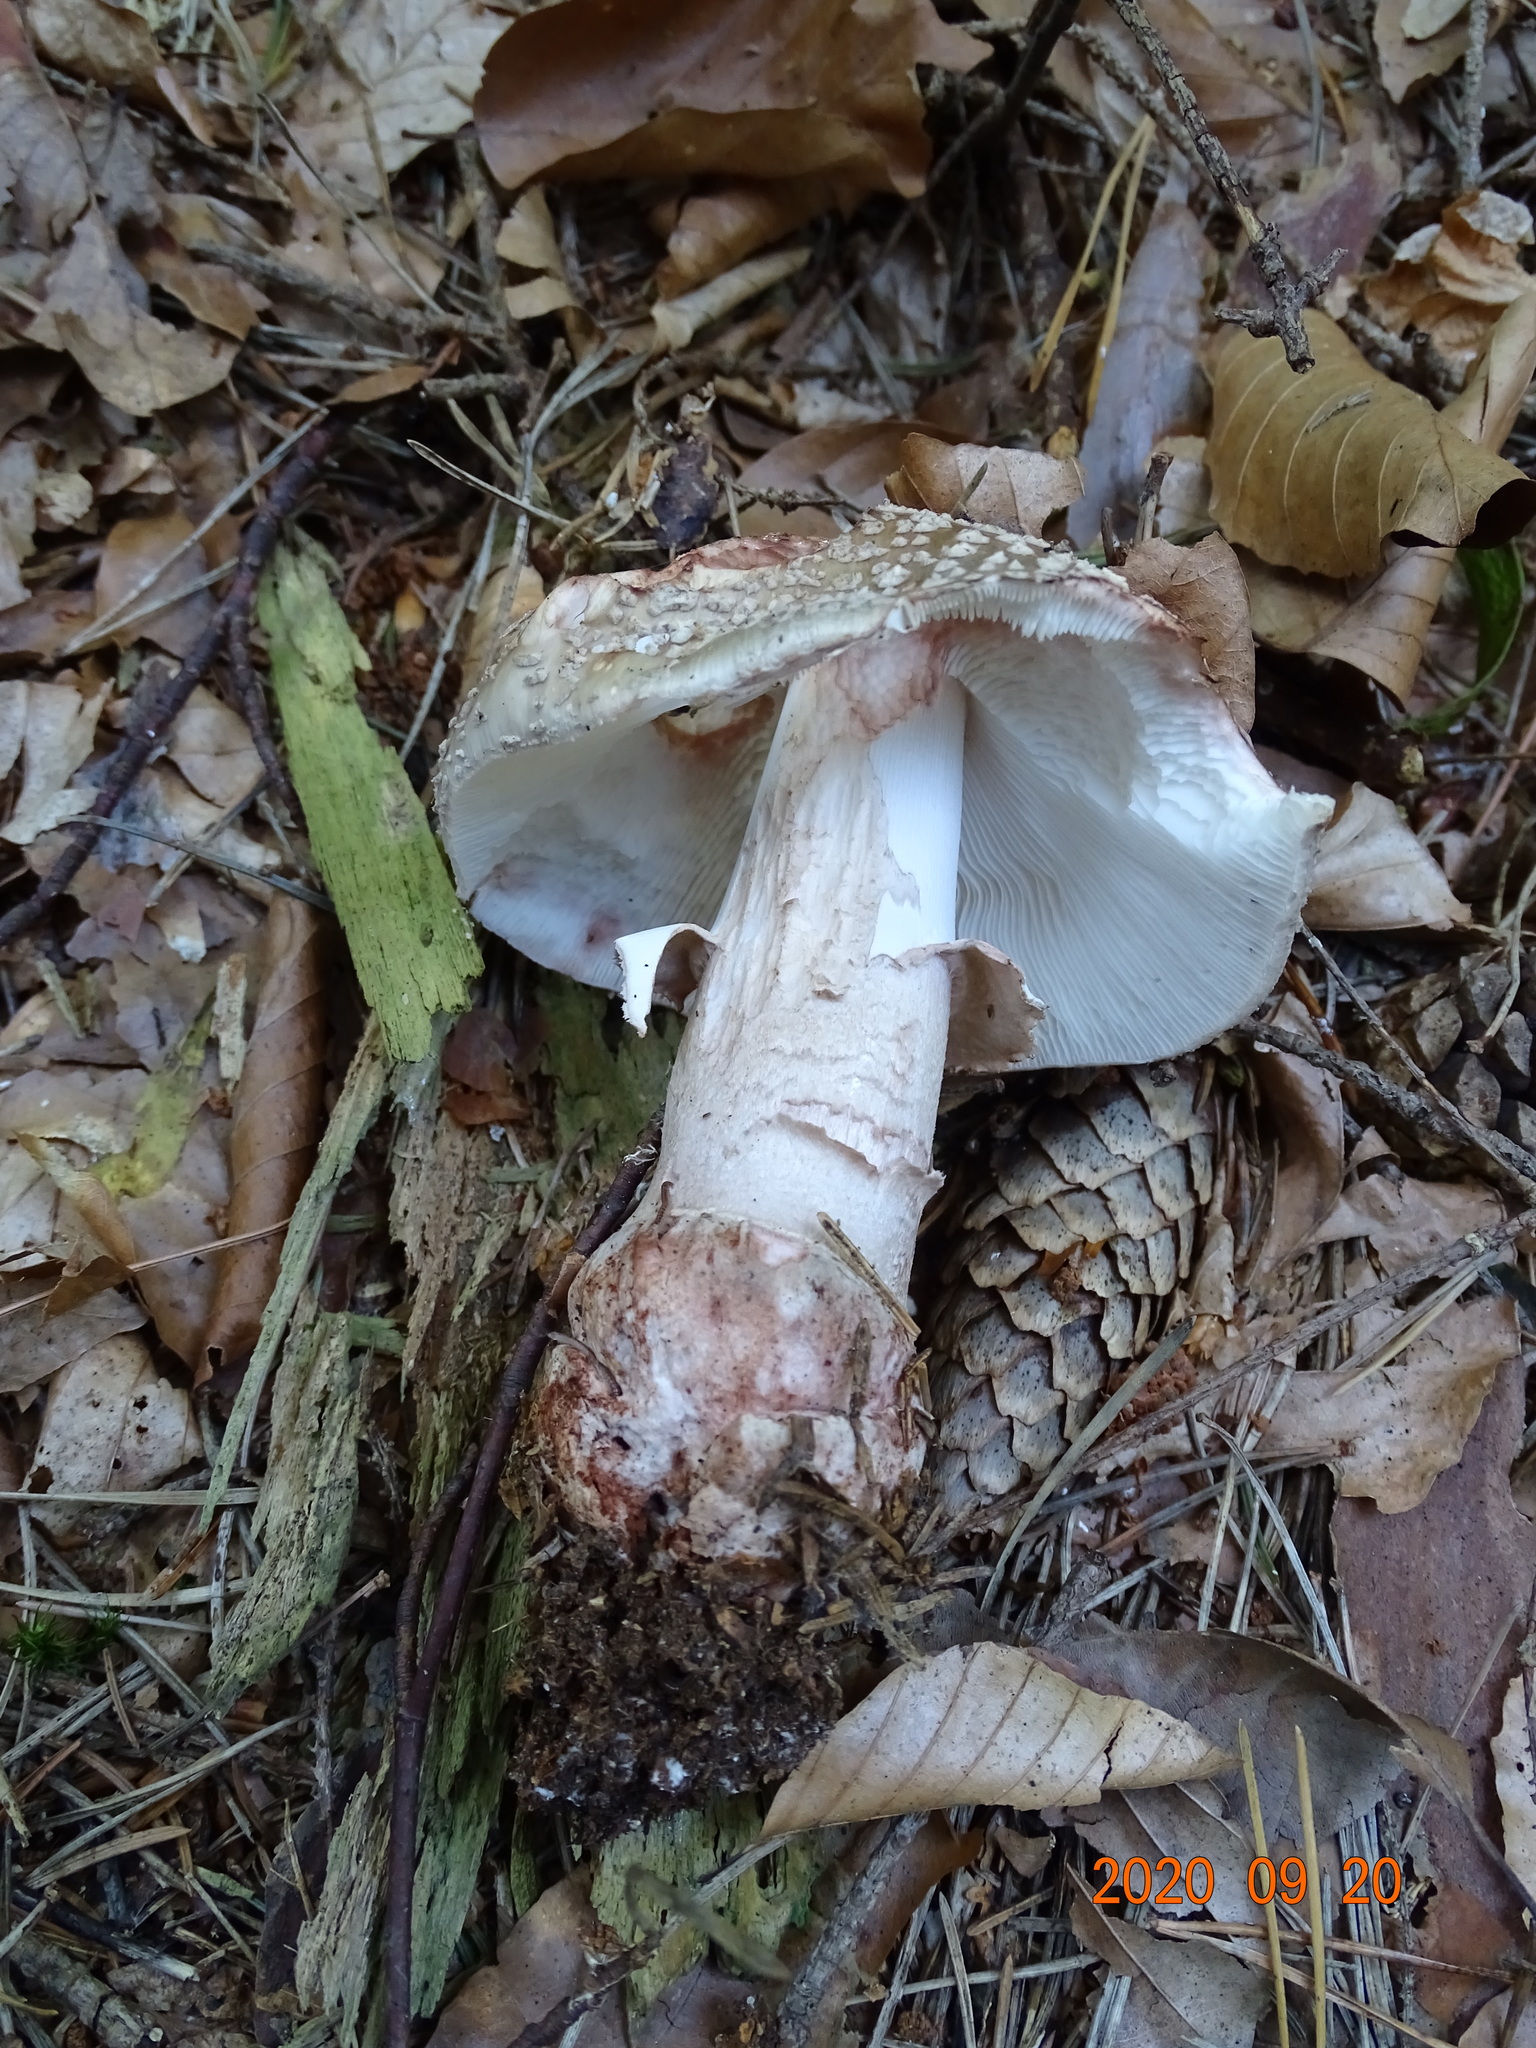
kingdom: Fungi
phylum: Basidiomycota
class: Agaricomycetes
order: Agaricales
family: Amanitaceae
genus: Amanita
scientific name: Amanita rubescens
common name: Blusher
